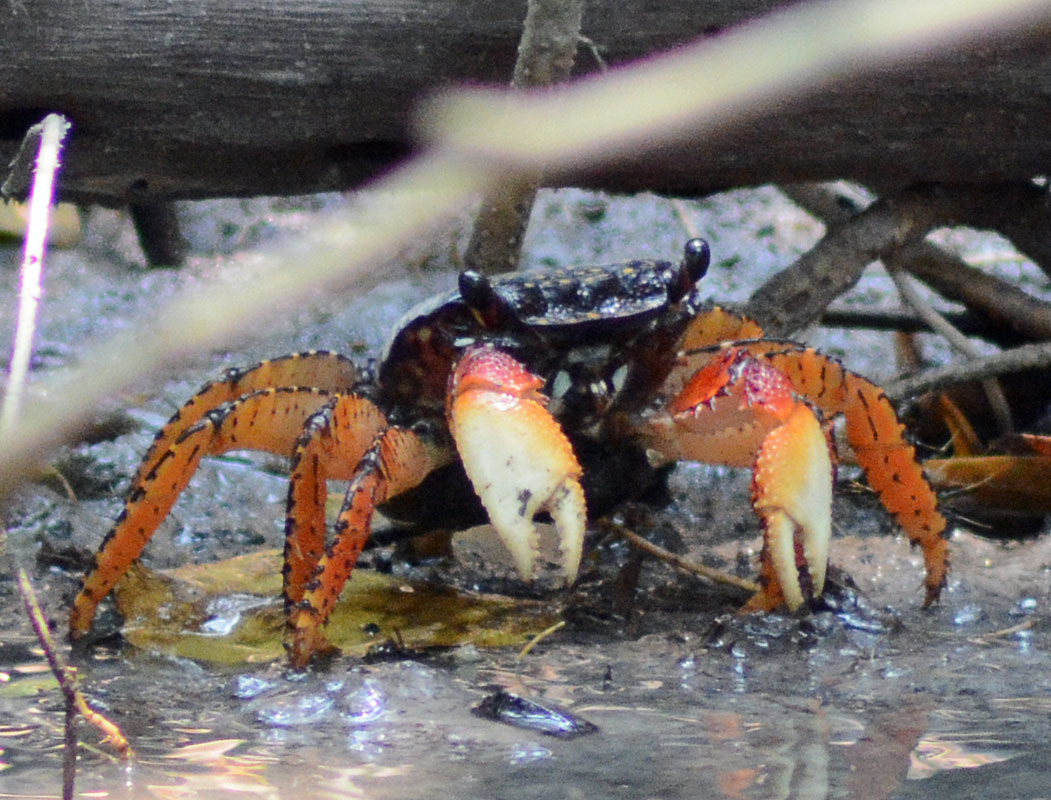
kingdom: Animalia
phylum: Arthropoda
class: Malacostraca
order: Decapoda
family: Grapsidae
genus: Goniopsis
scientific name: Goniopsis pulchra
